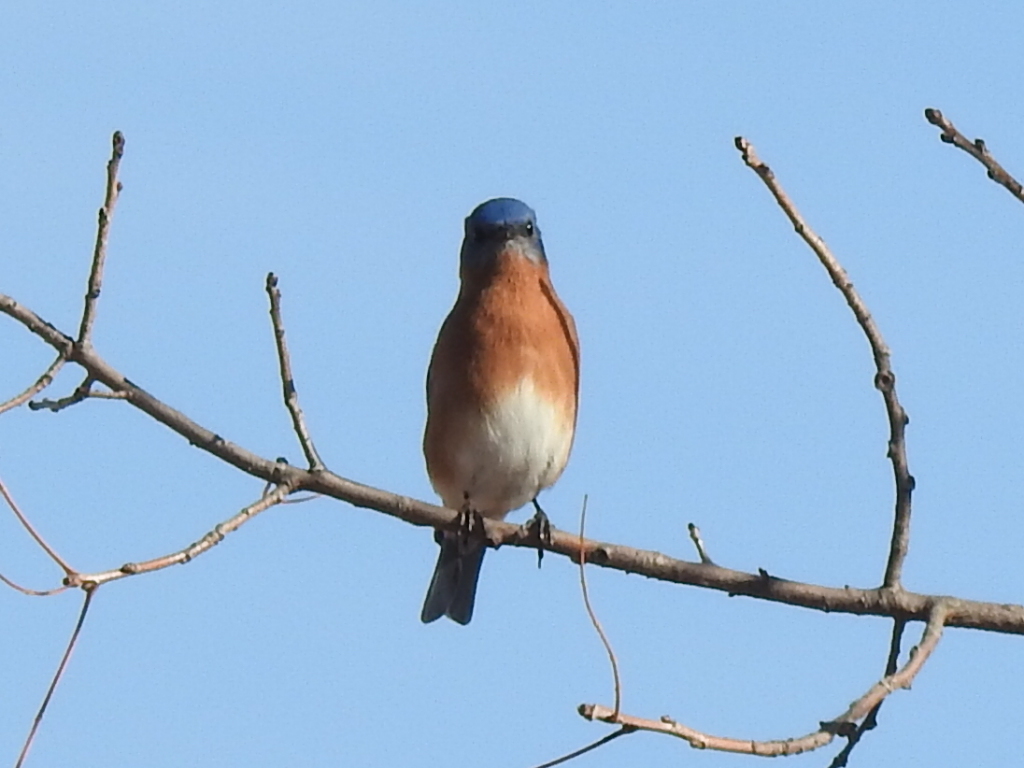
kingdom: Animalia
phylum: Chordata
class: Aves
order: Passeriformes
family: Turdidae
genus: Sialia
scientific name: Sialia sialis
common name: Eastern bluebird
